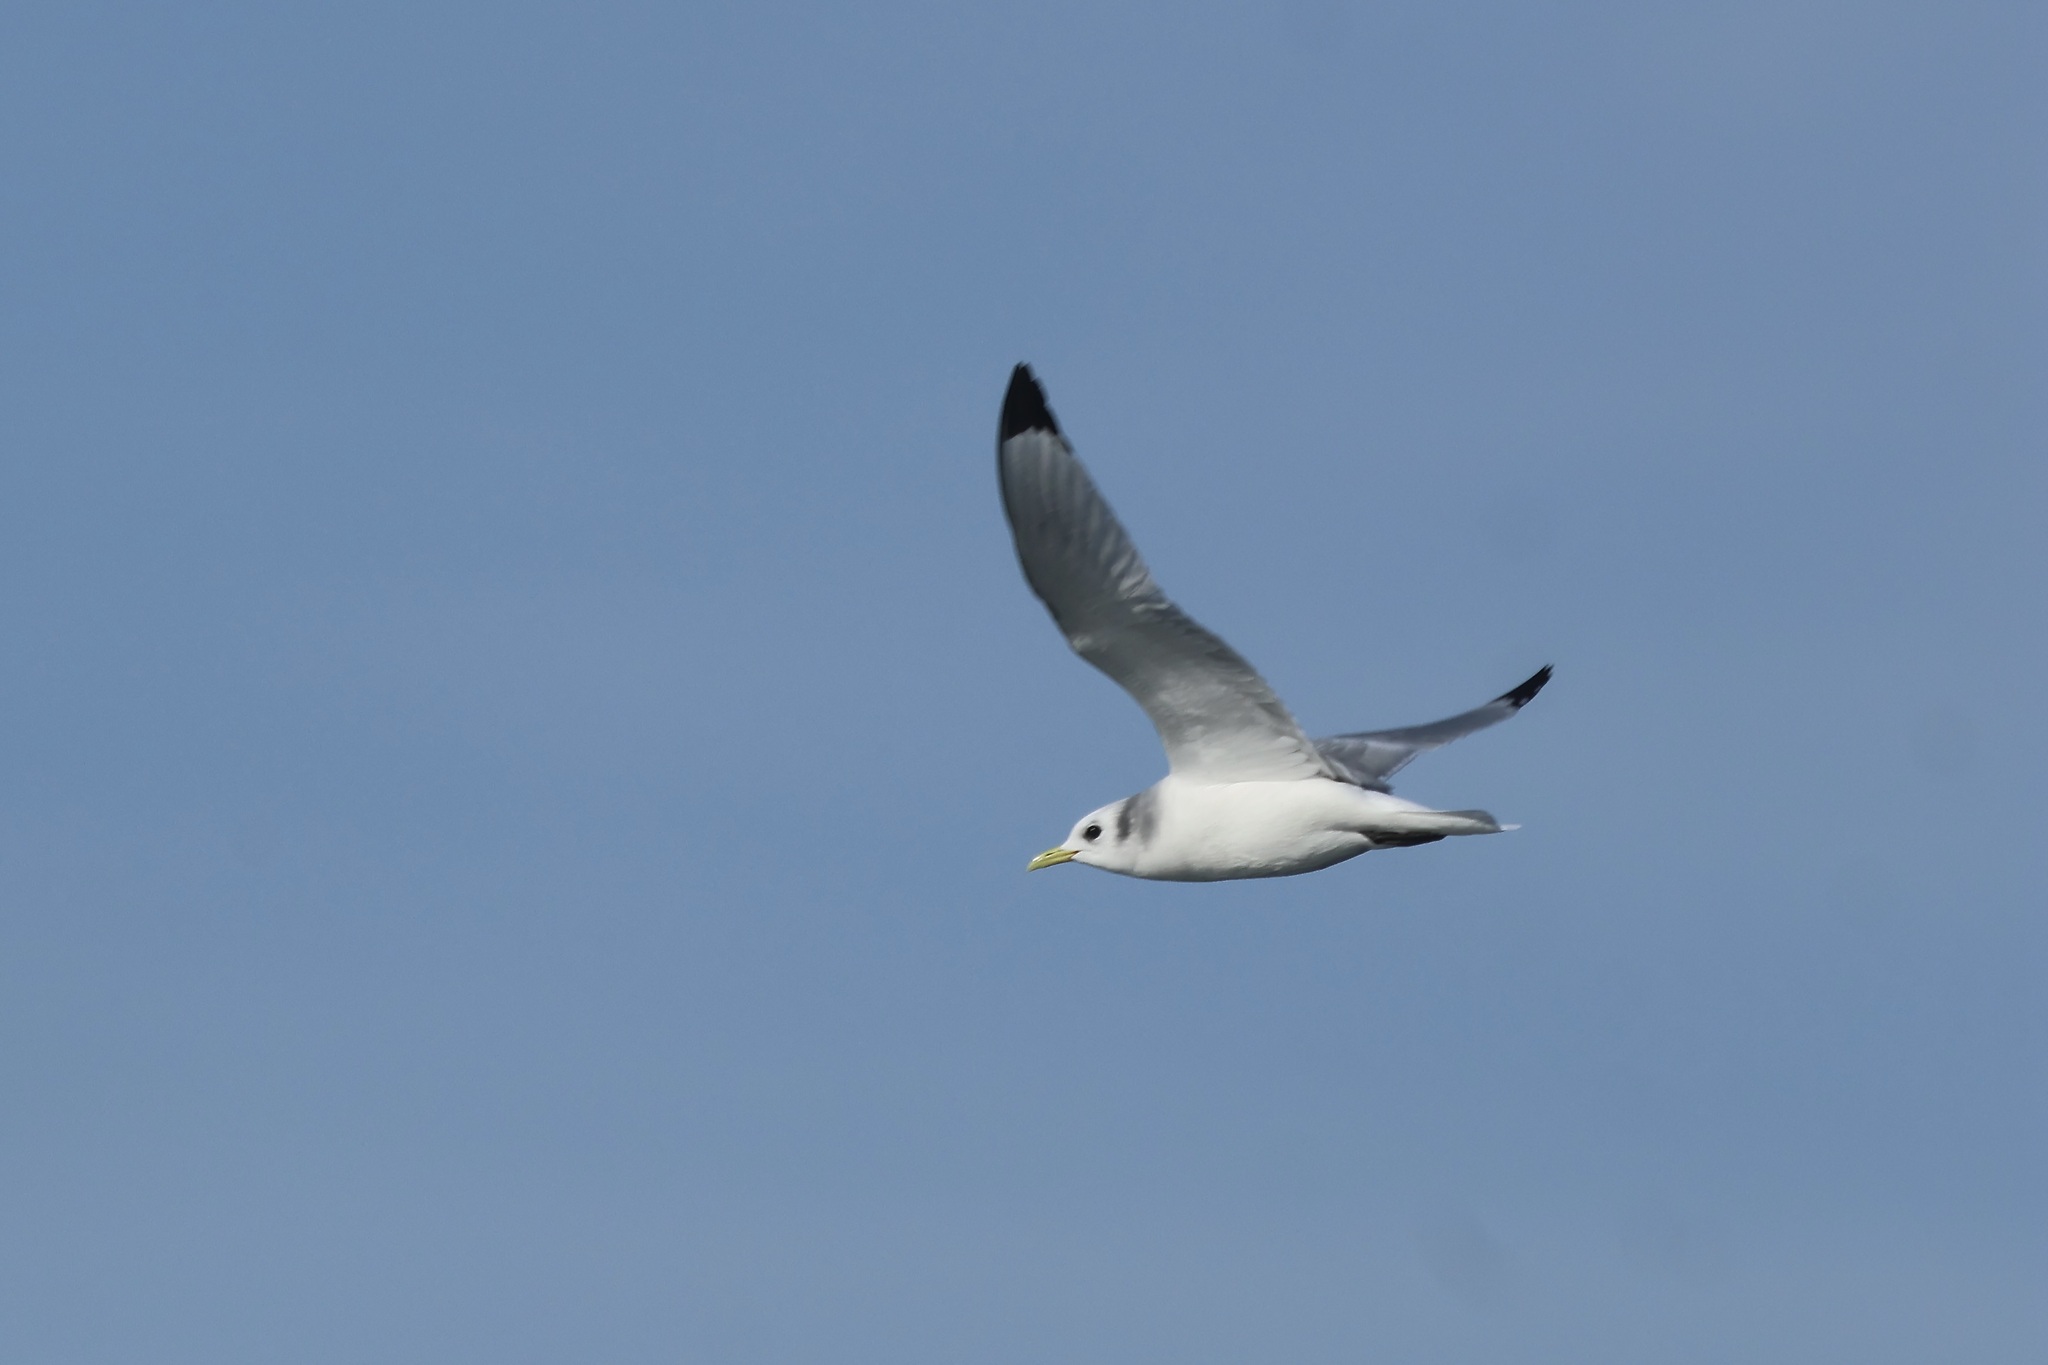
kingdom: Animalia
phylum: Chordata
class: Aves
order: Charadriiformes
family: Laridae
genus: Rissa
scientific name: Rissa tridactyla
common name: Black-legged kittiwake
